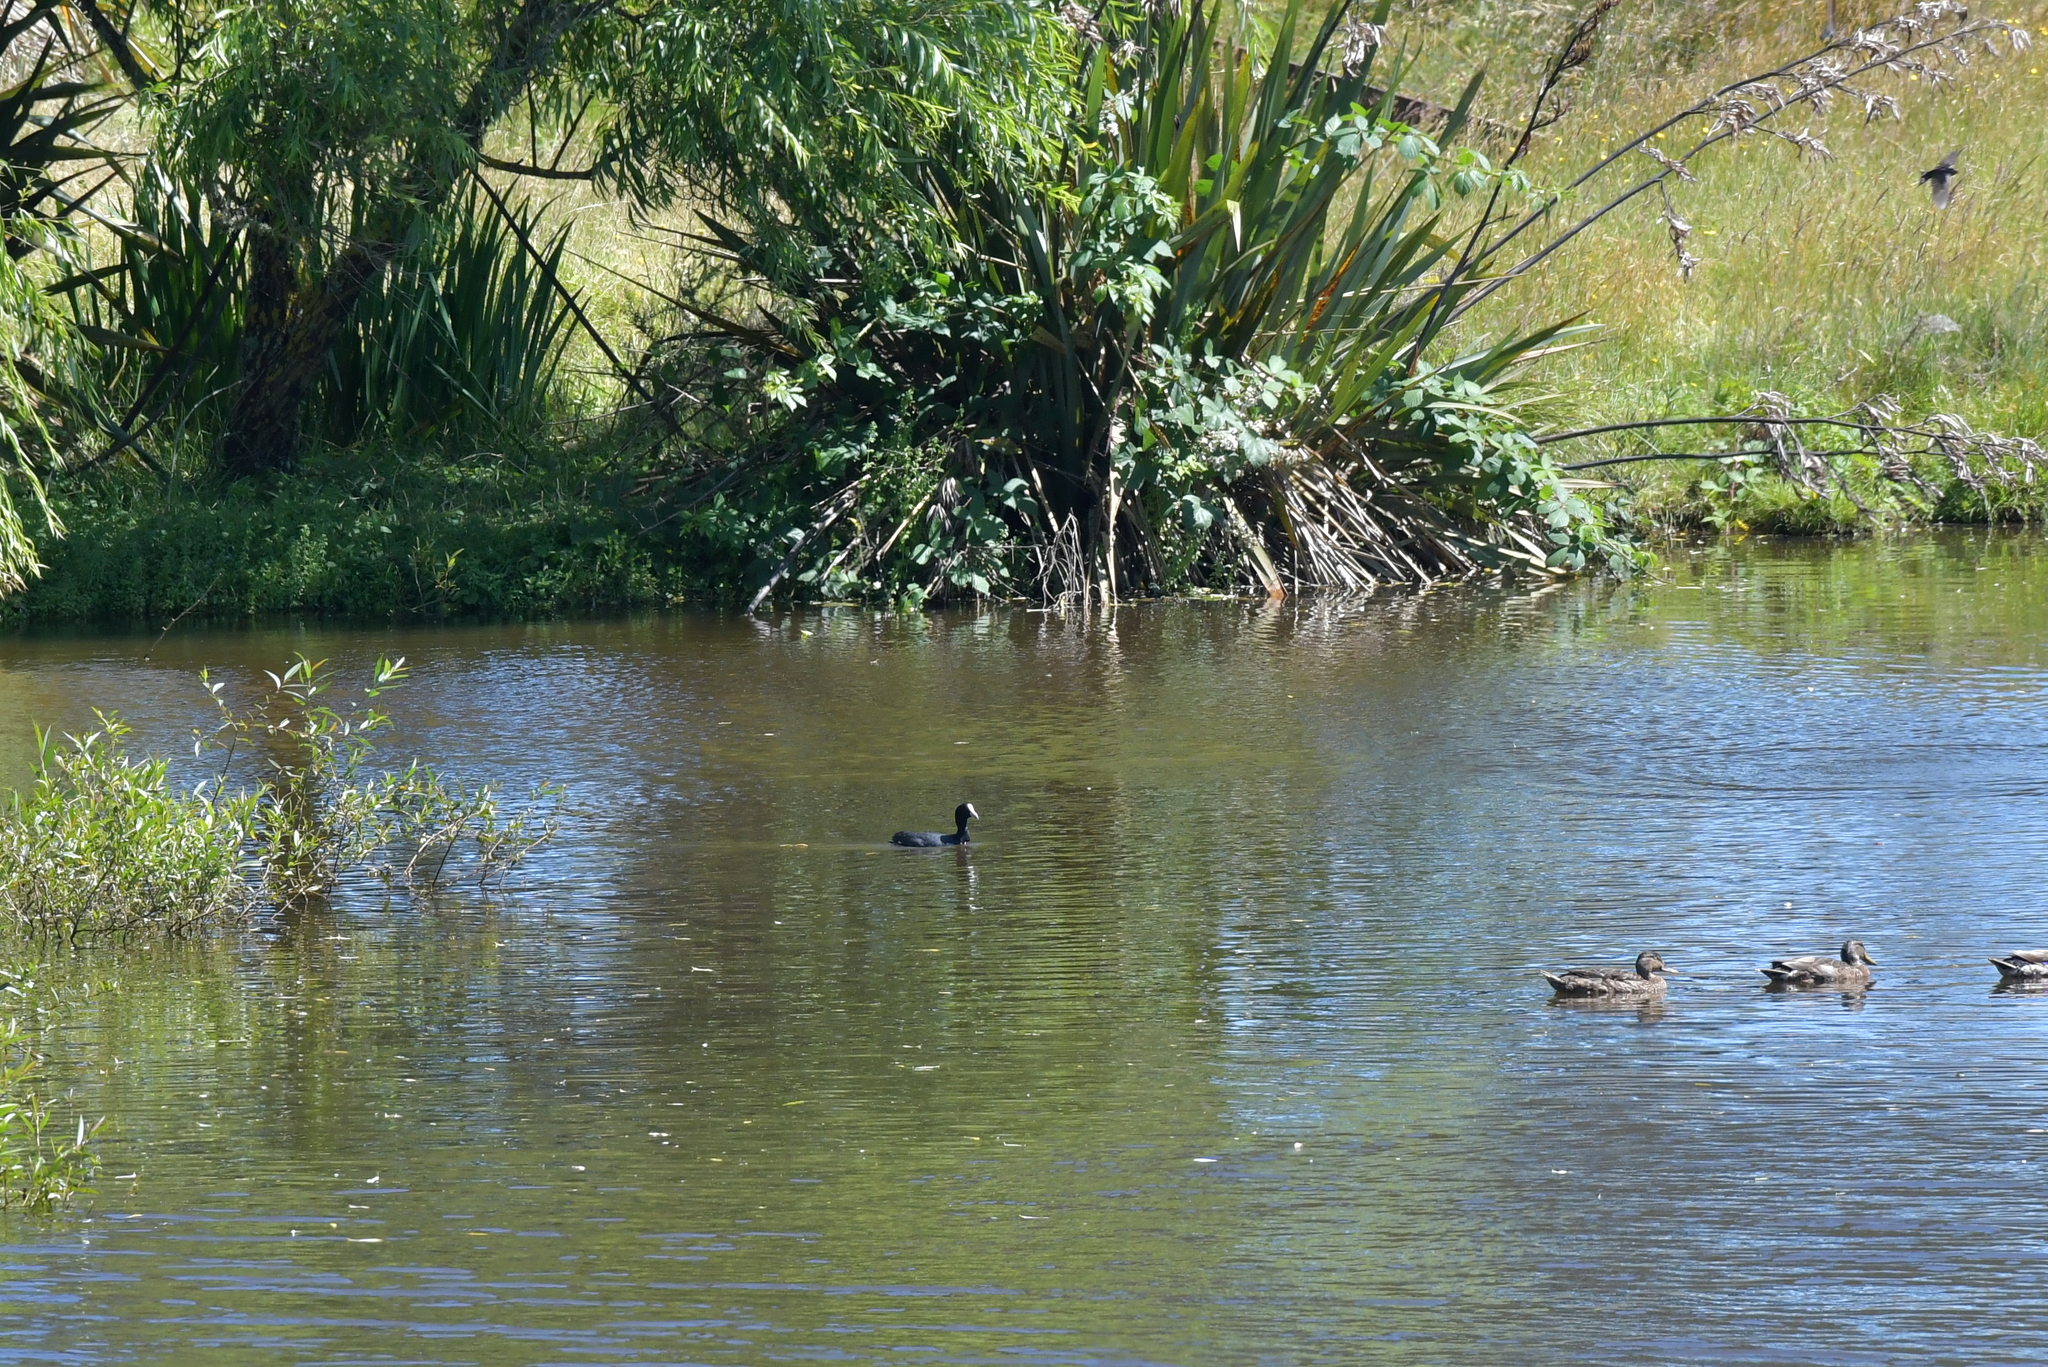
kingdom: Animalia
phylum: Chordata
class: Aves
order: Gruiformes
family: Rallidae
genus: Fulica
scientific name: Fulica atra
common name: Eurasian coot
